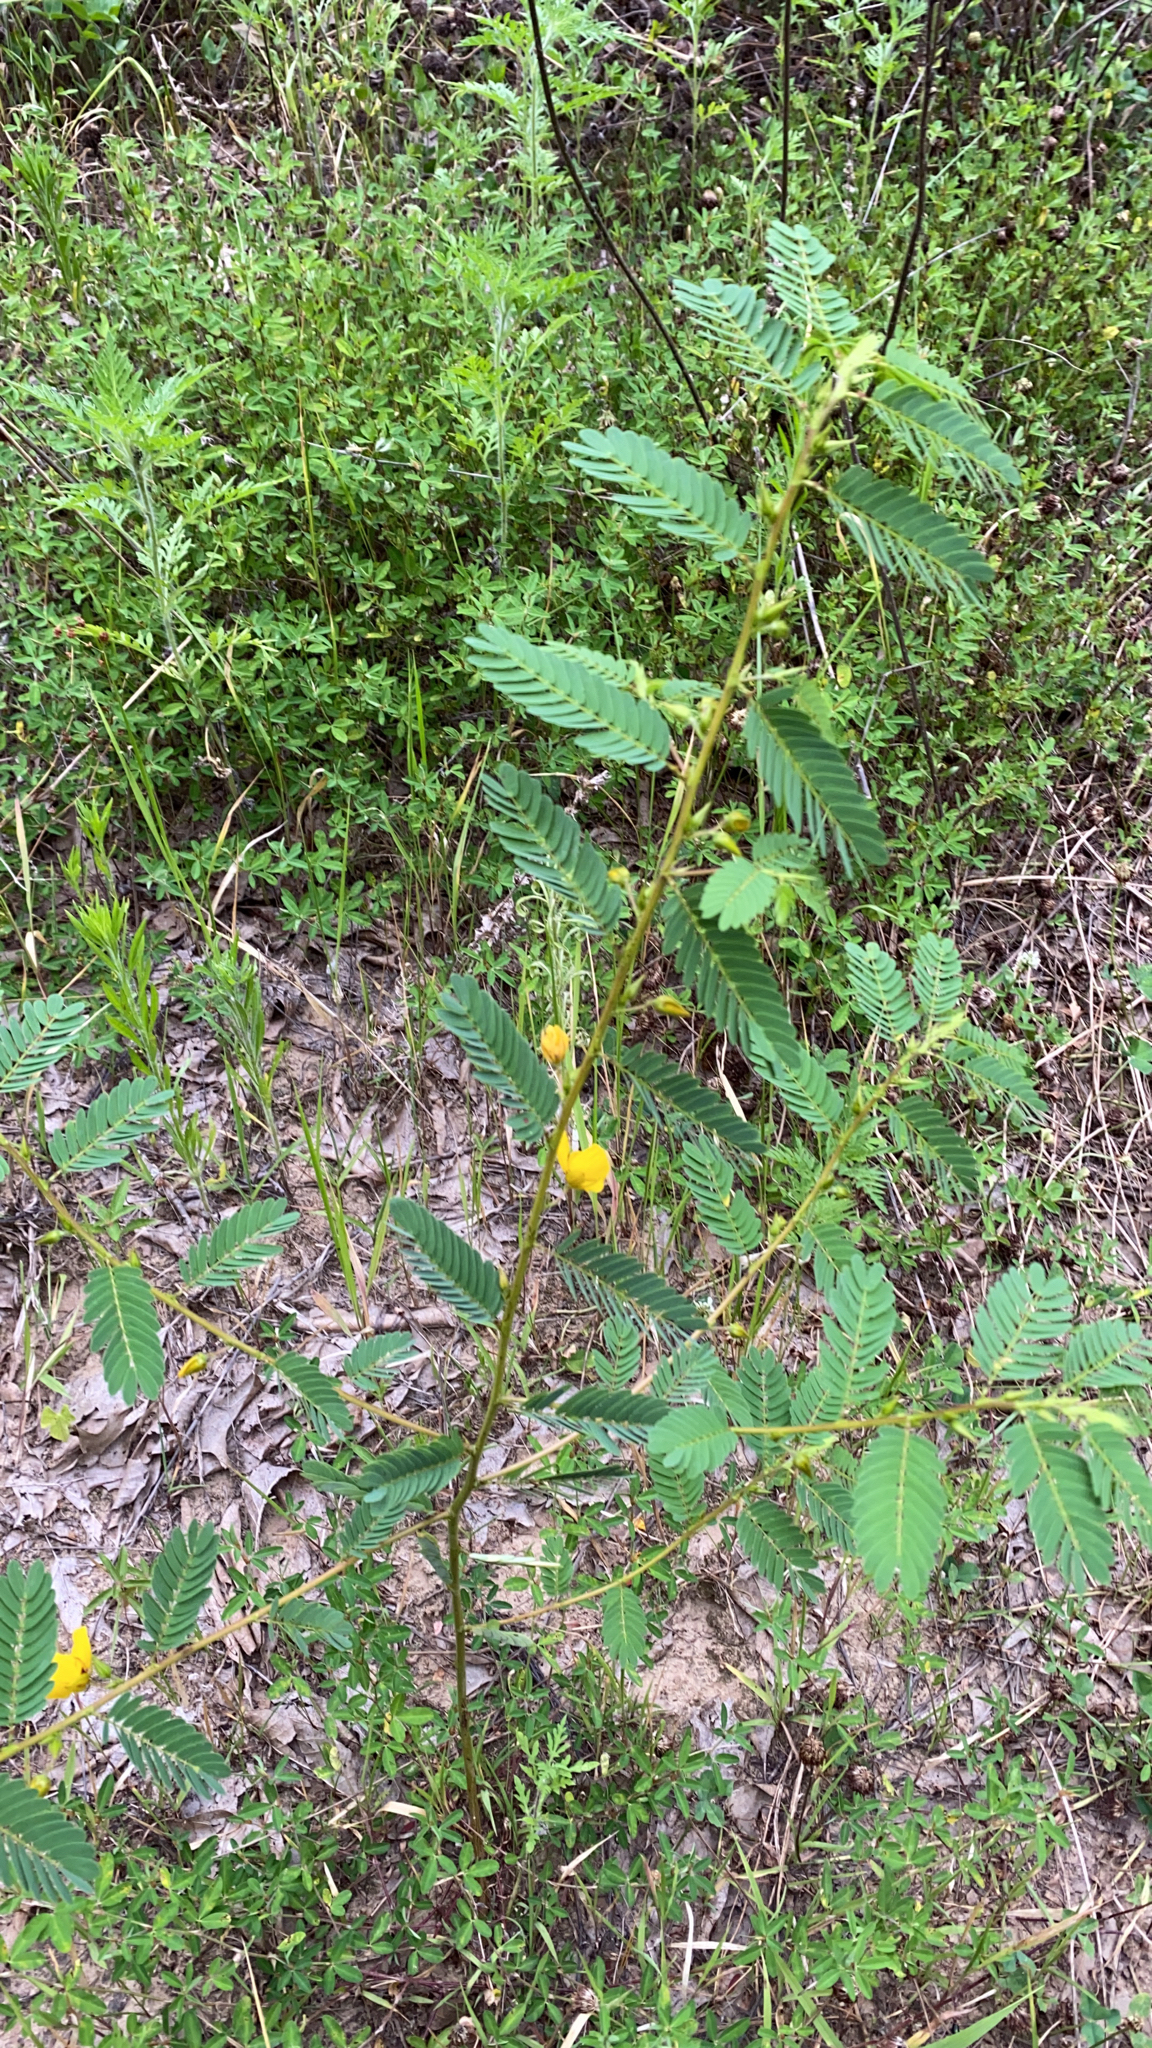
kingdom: Plantae
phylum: Tracheophyta
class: Magnoliopsida
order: Fabales
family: Fabaceae
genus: Chamaecrista
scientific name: Chamaecrista fasciculata
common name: Golden cassia
